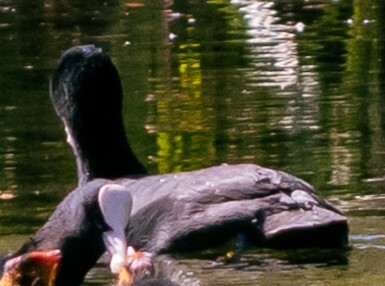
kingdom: Animalia
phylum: Chordata
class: Aves
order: Gruiformes
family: Rallidae
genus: Fulica
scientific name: Fulica atra
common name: Eurasian coot
